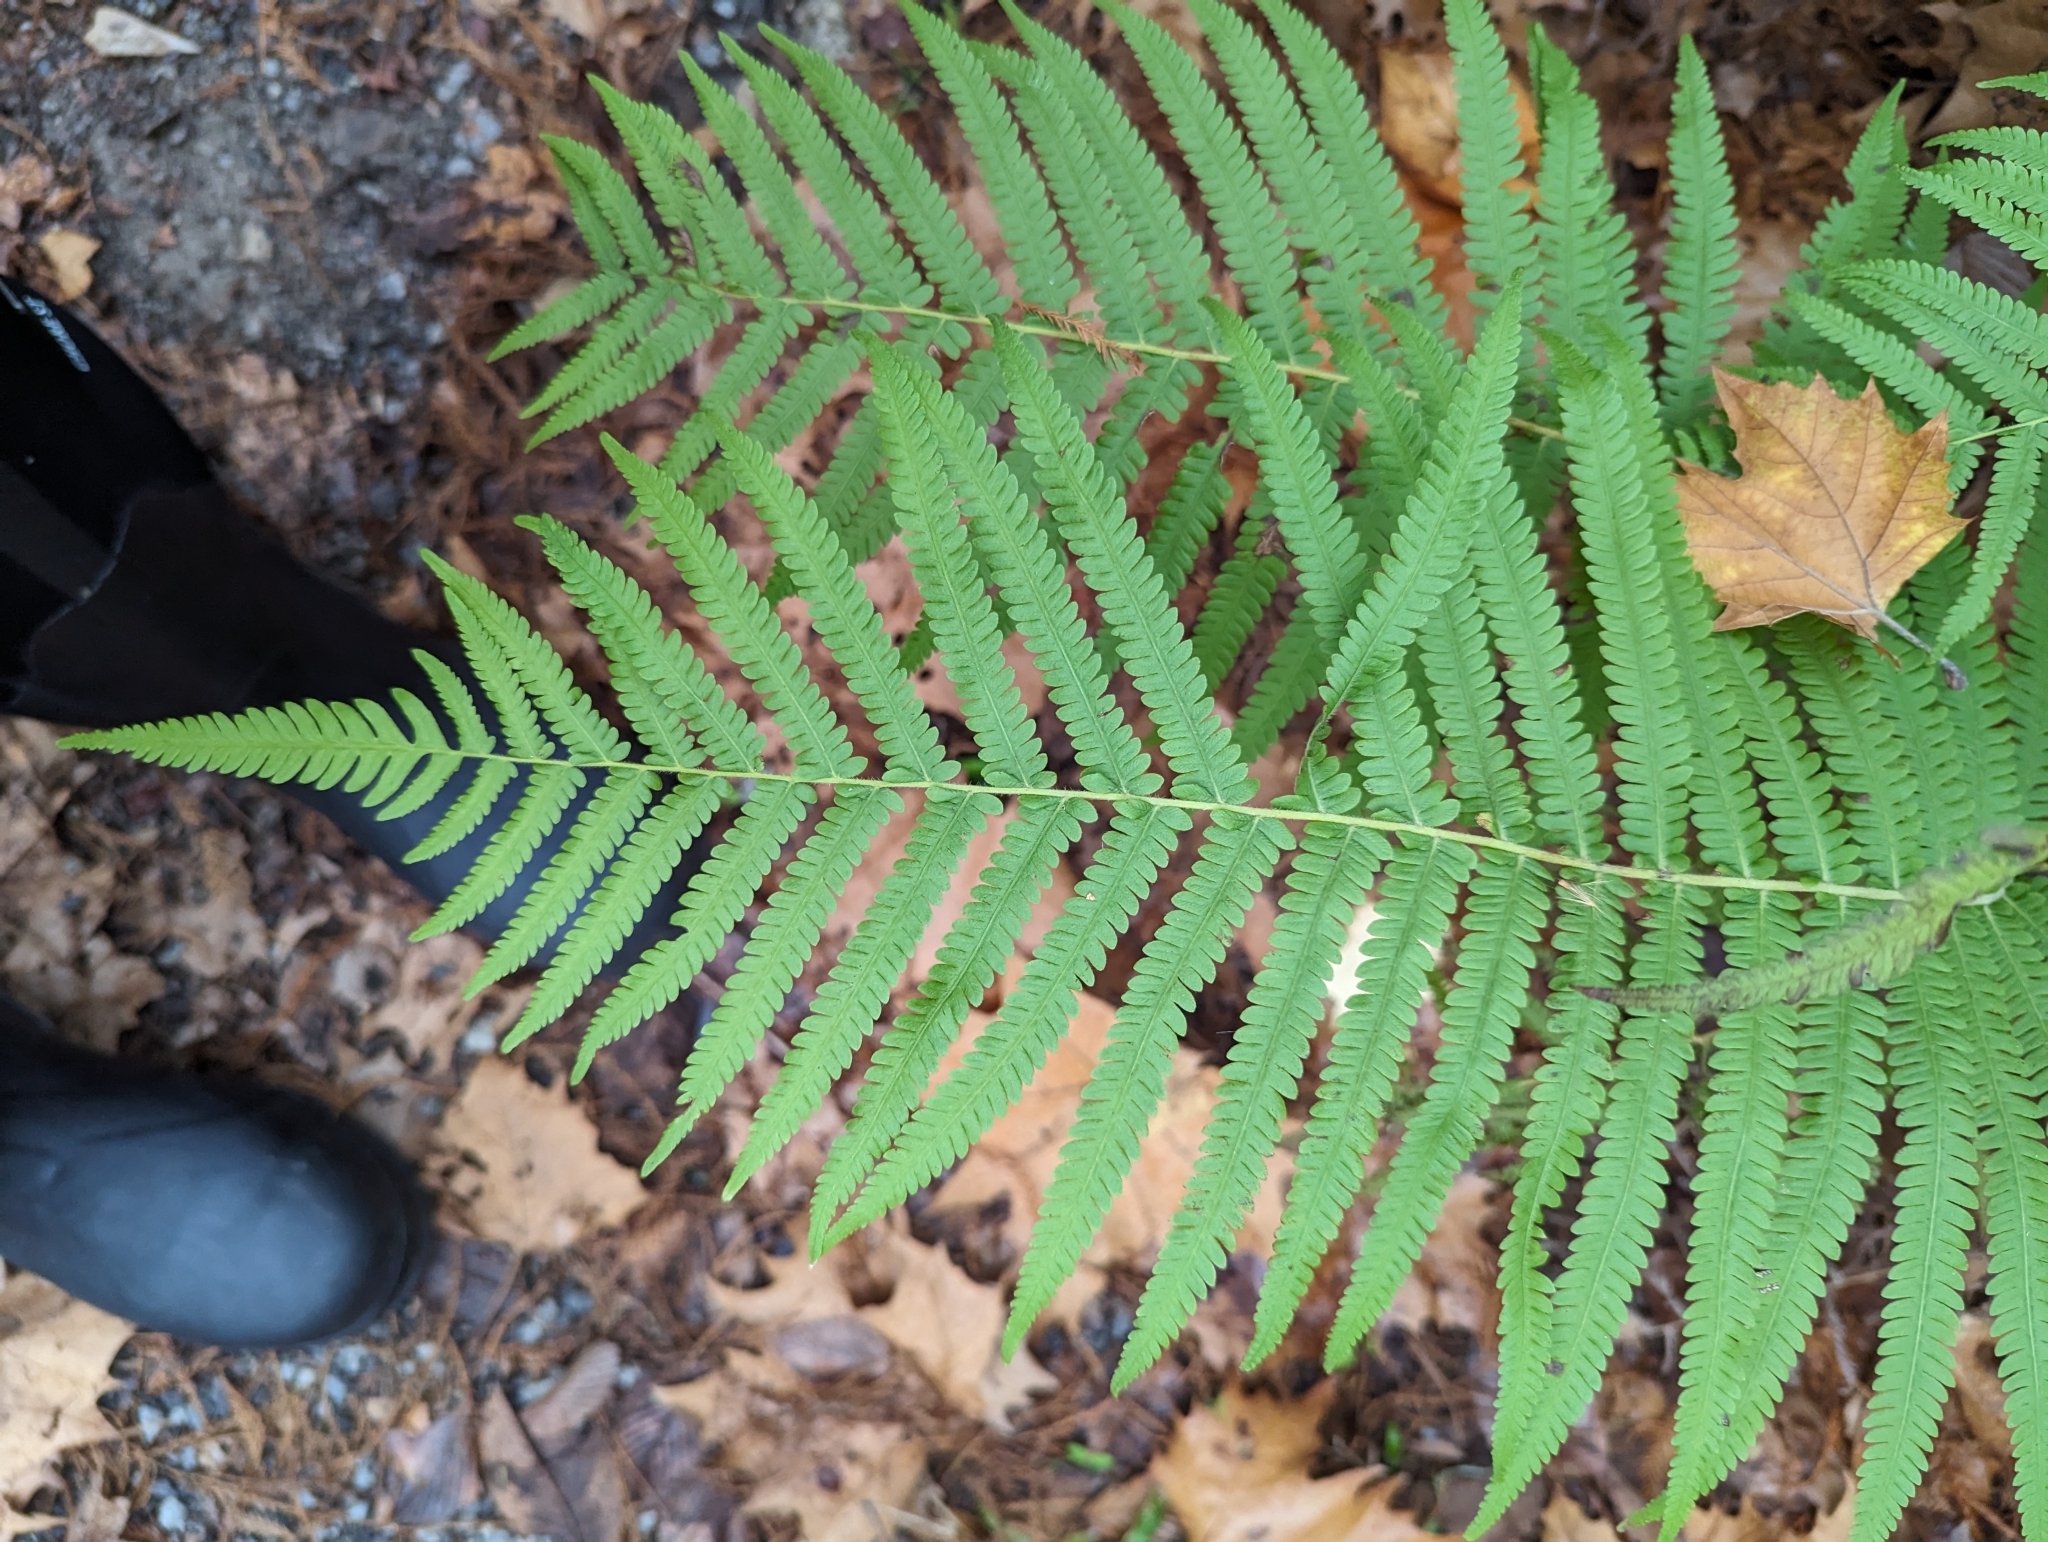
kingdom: Plantae
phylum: Tracheophyta
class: Polypodiopsida
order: Polypodiales
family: Thelypteridaceae
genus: Pelazoneuron
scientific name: Pelazoneuron kunthii
